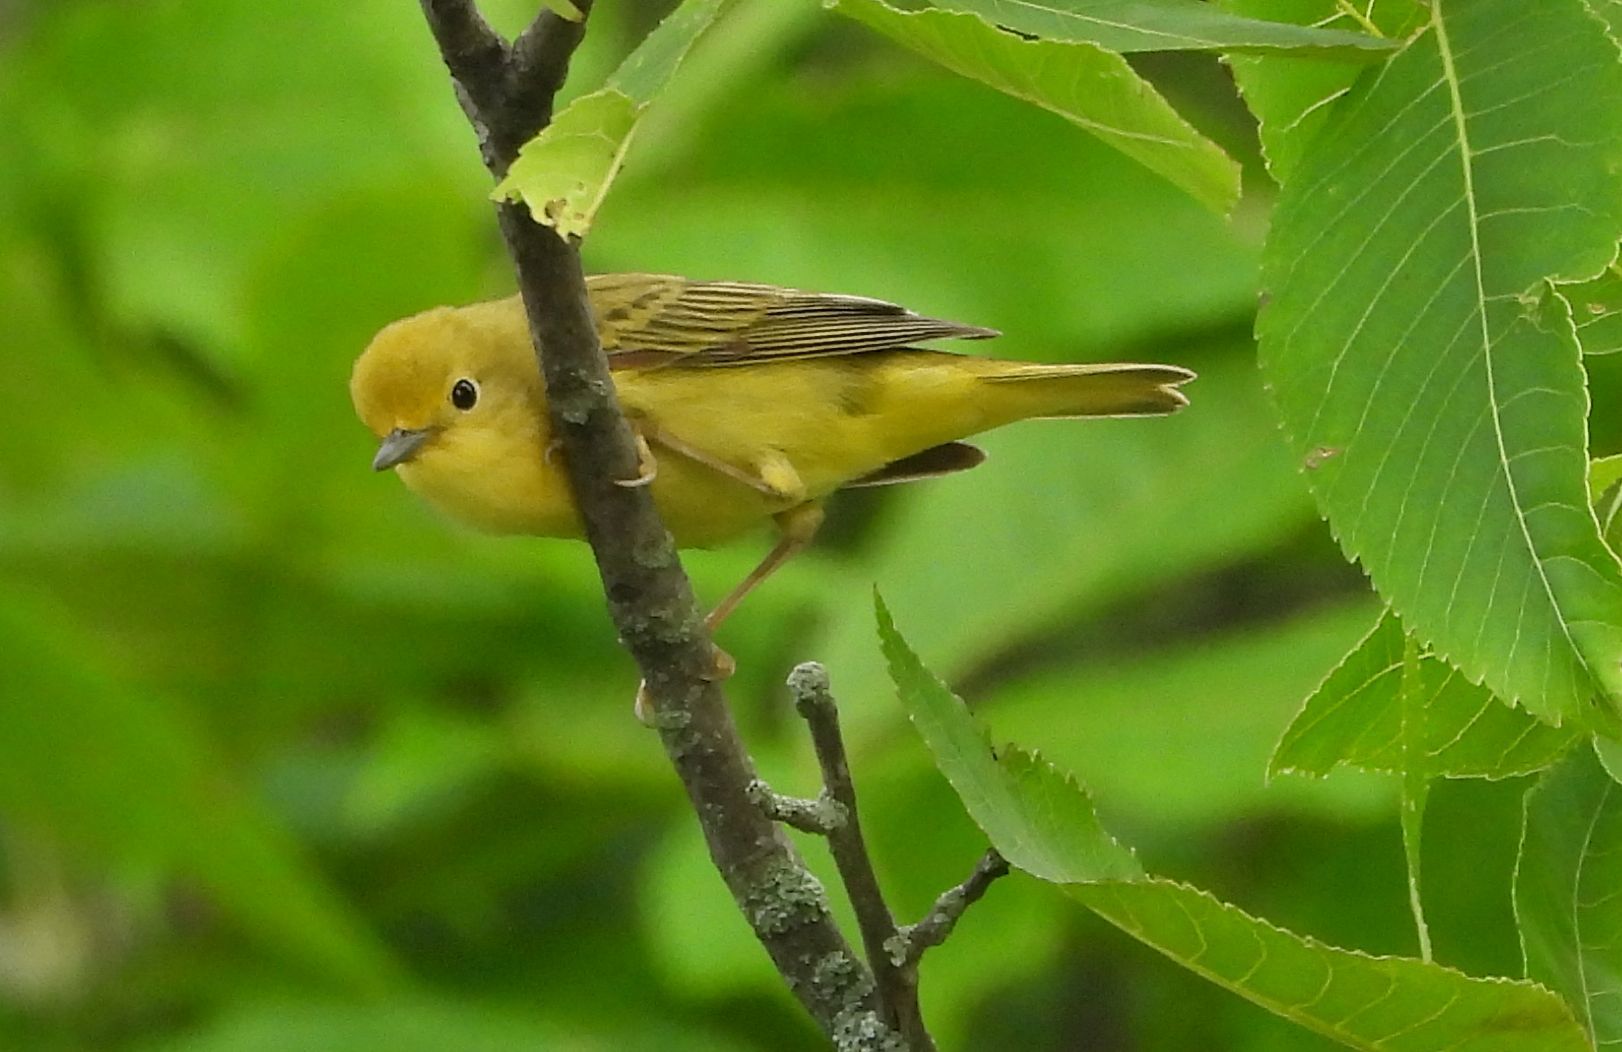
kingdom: Animalia
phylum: Chordata
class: Aves
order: Passeriformes
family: Parulidae
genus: Setophaga
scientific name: Setophaga petechia
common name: Yellow warbler
